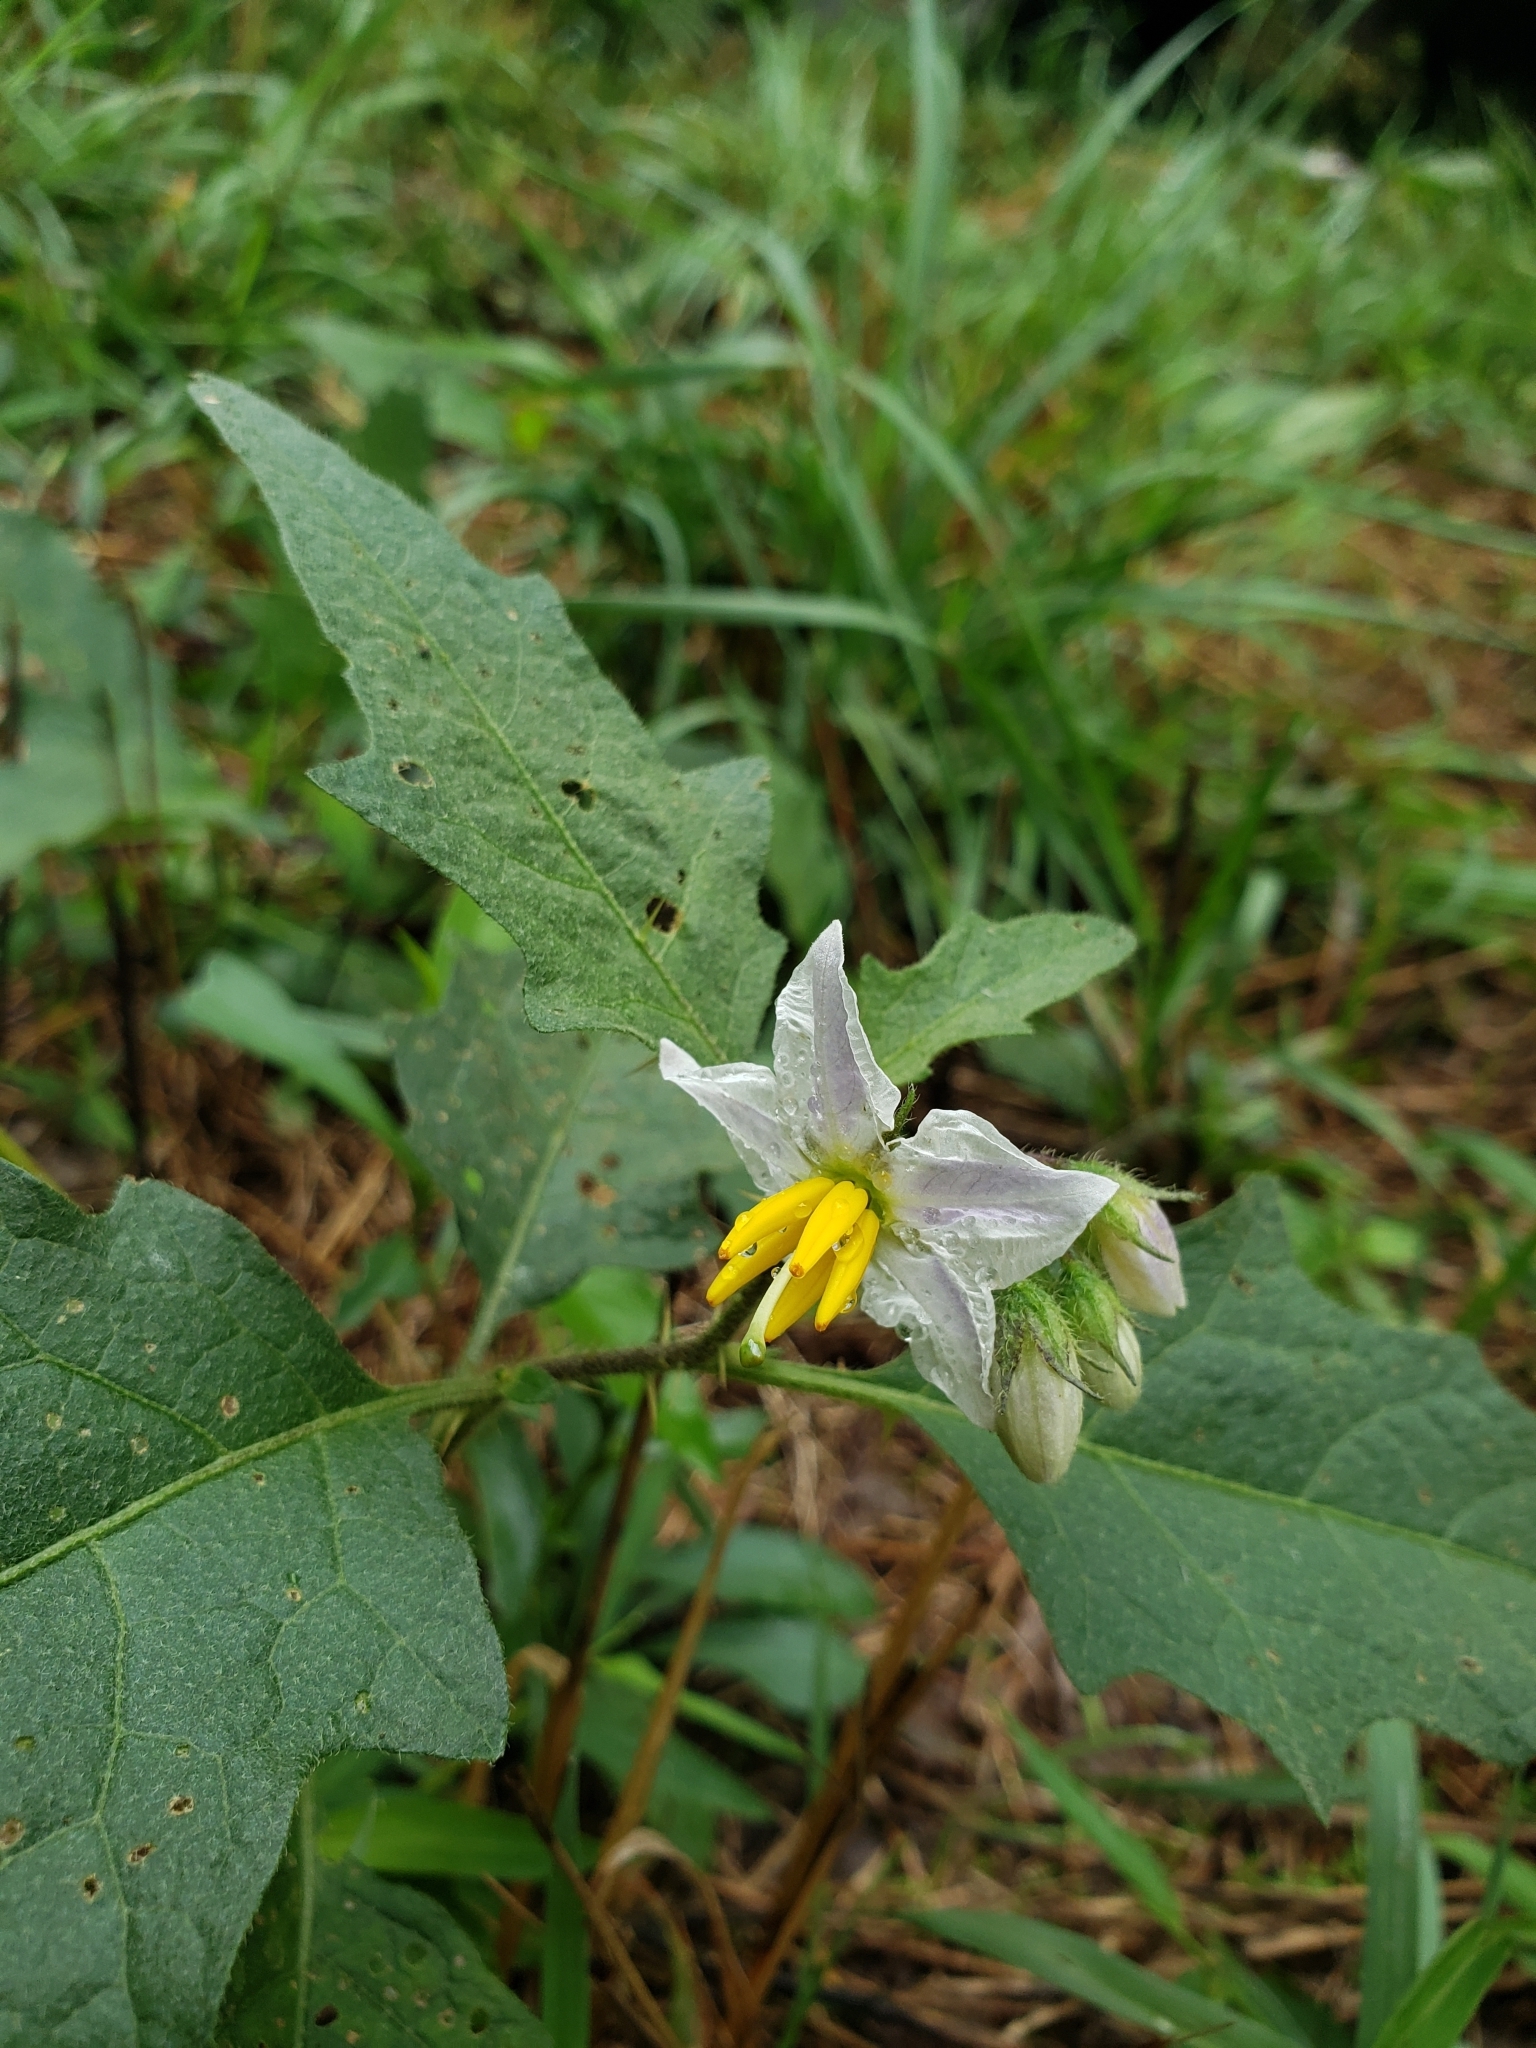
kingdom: Plantae
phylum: Tracheophyta
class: Magnoliopsida
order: Solanales
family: Solanaceae
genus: Solanum
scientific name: Solanum carolinense
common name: Horse-nettle
